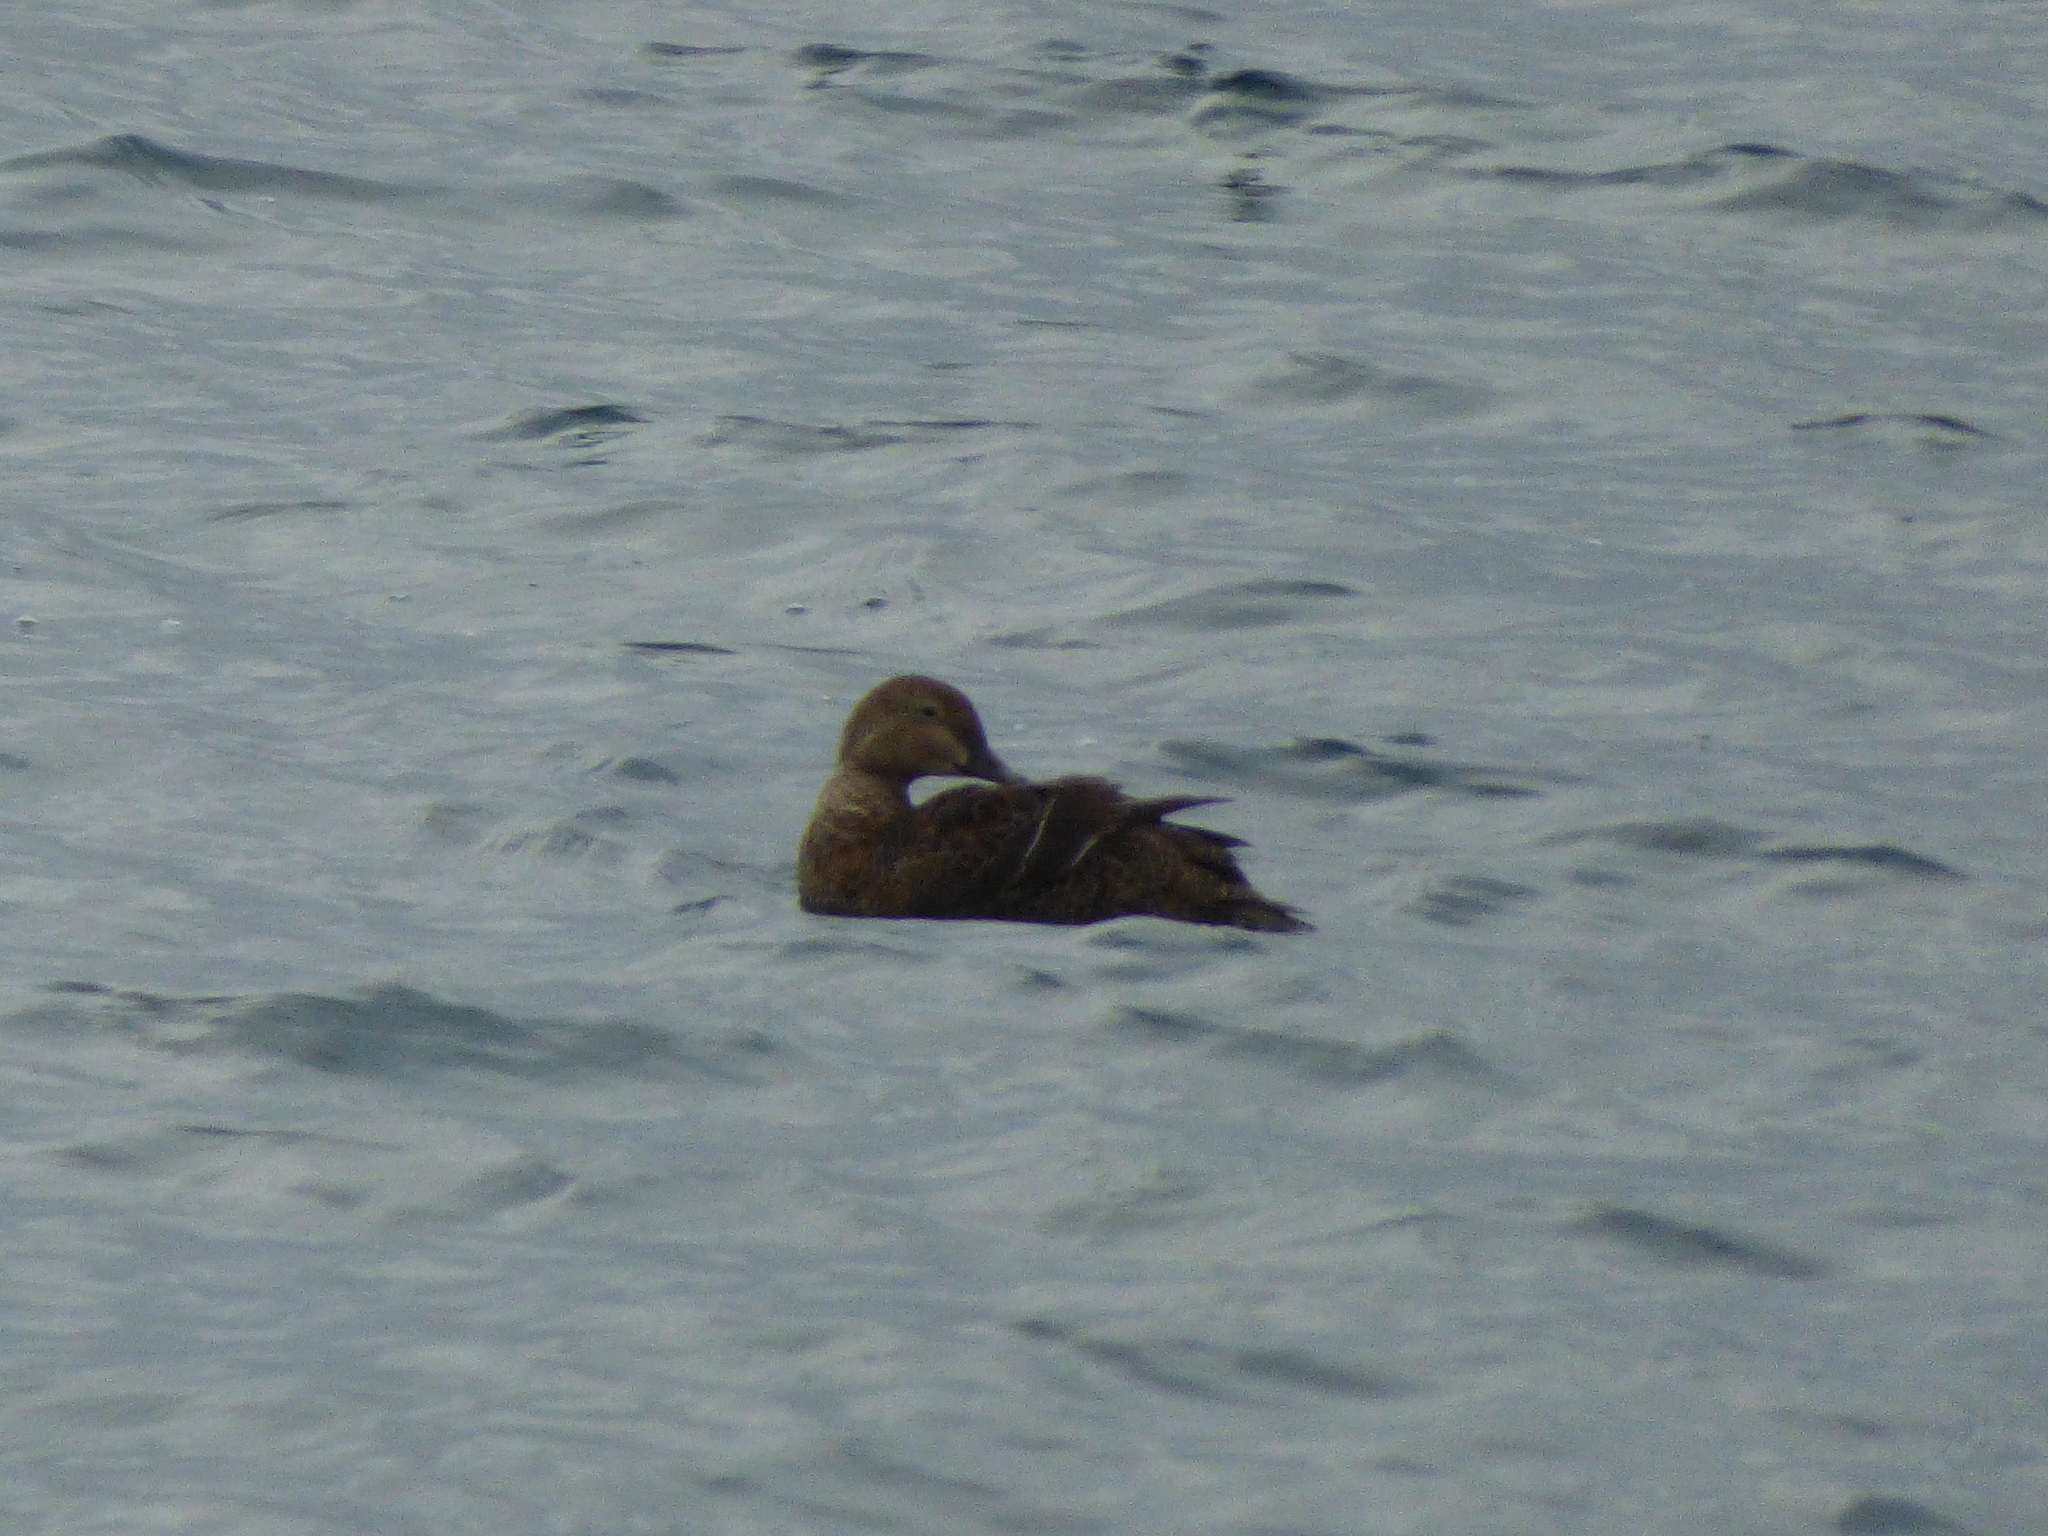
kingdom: Animalia
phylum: Chordata
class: Aves
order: Anseriformes
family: Anatidae
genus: Somateria
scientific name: Somateria spectabilis
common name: King eider
